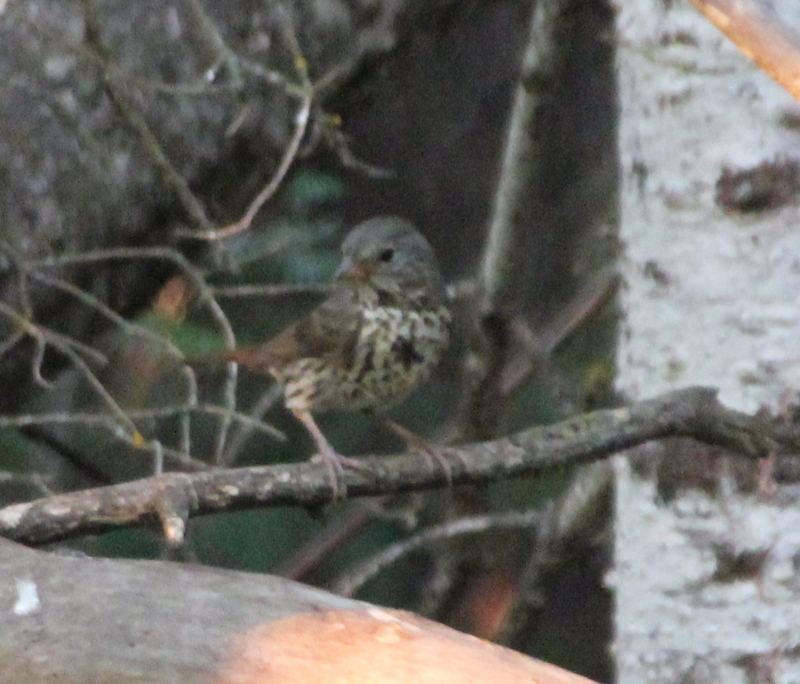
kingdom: Animalia
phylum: Chordata
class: Aves
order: Passeriformes
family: Passerellidae
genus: Passerella
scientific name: Passerella iliaca
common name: Fox sparrow
